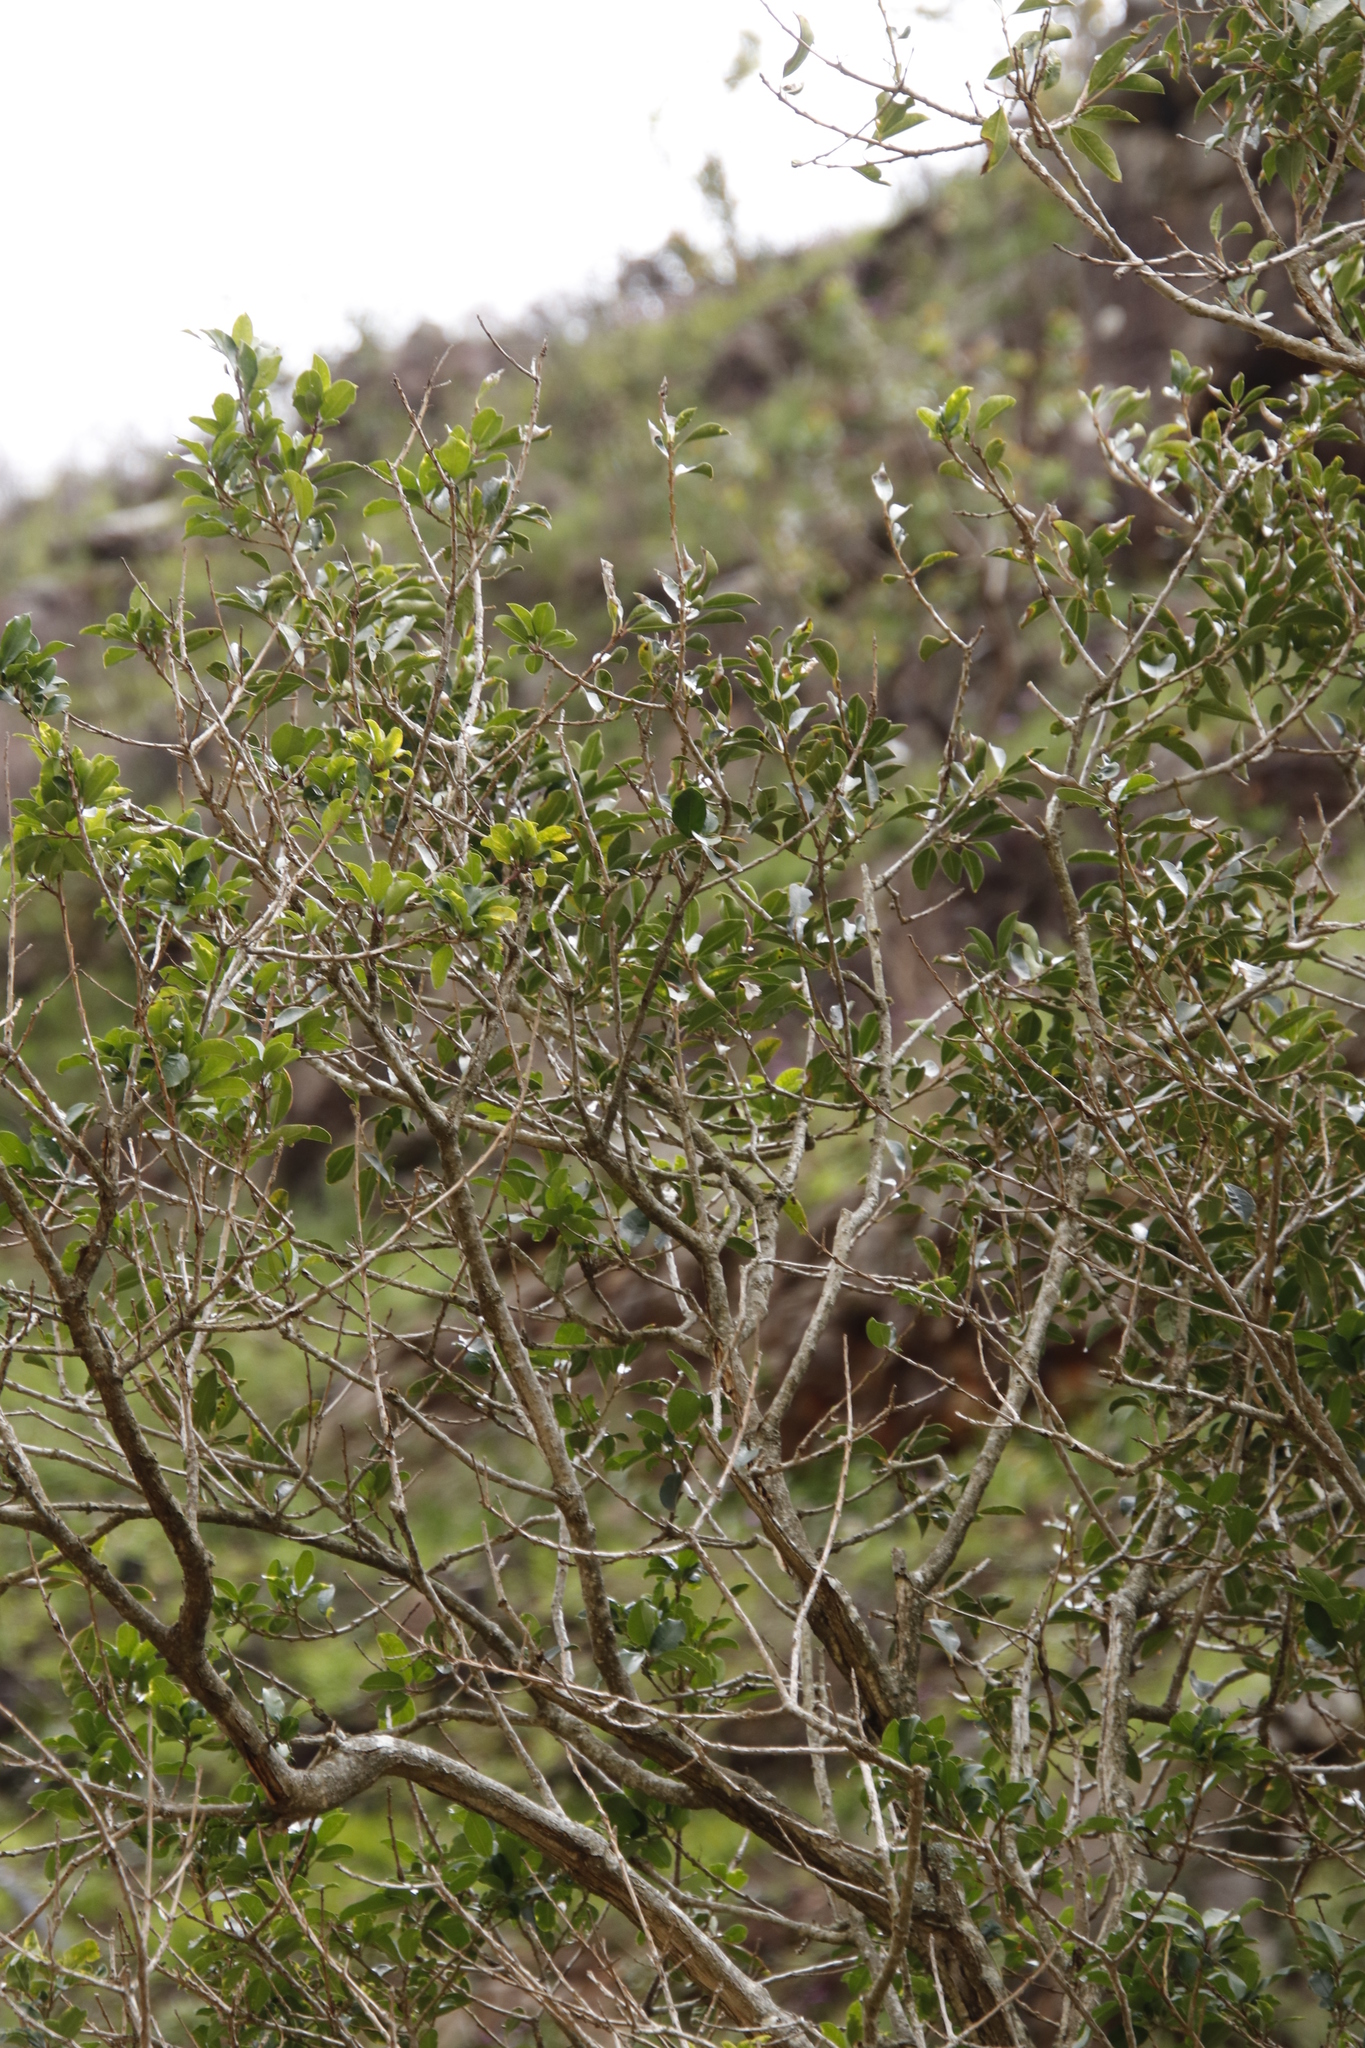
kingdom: Plantae
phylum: Tracheophyta
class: Magnoliopsida
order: Aquifoliales
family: Aquifoliaceae
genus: Ilex
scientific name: Ilex mitis
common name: African holly
